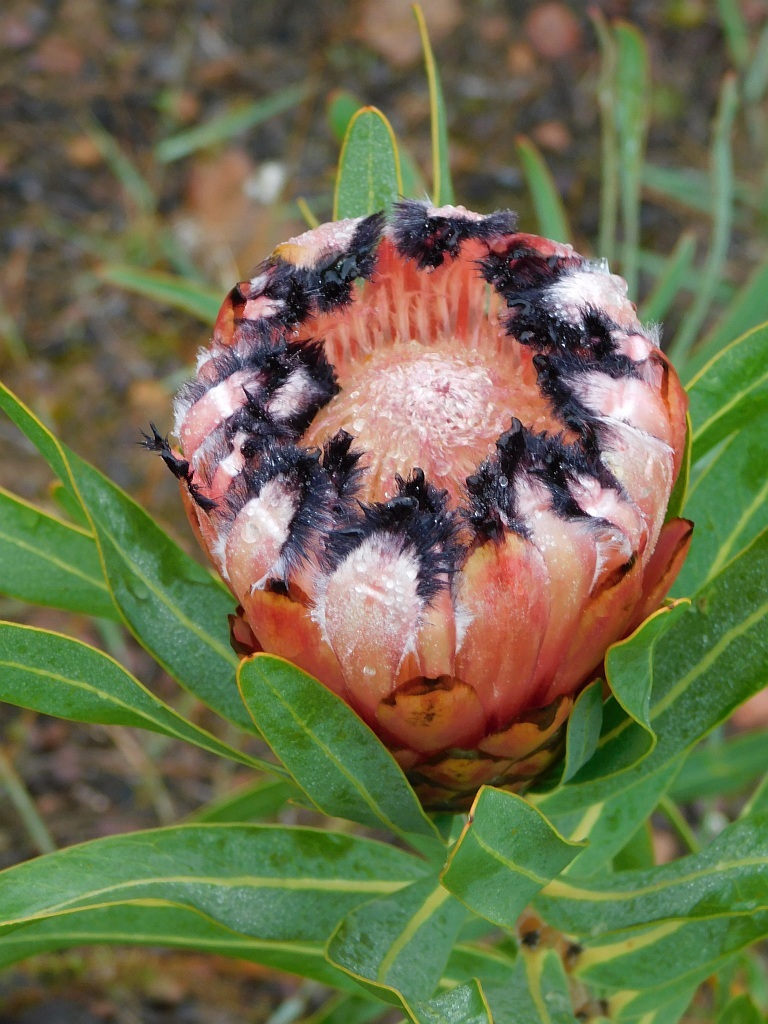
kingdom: Plantae
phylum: Tracheophyta
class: Magnoliopsida
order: Proteales
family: Proteaceae
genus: Protea
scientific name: Protea neriifolia
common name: Blue sugarbush
